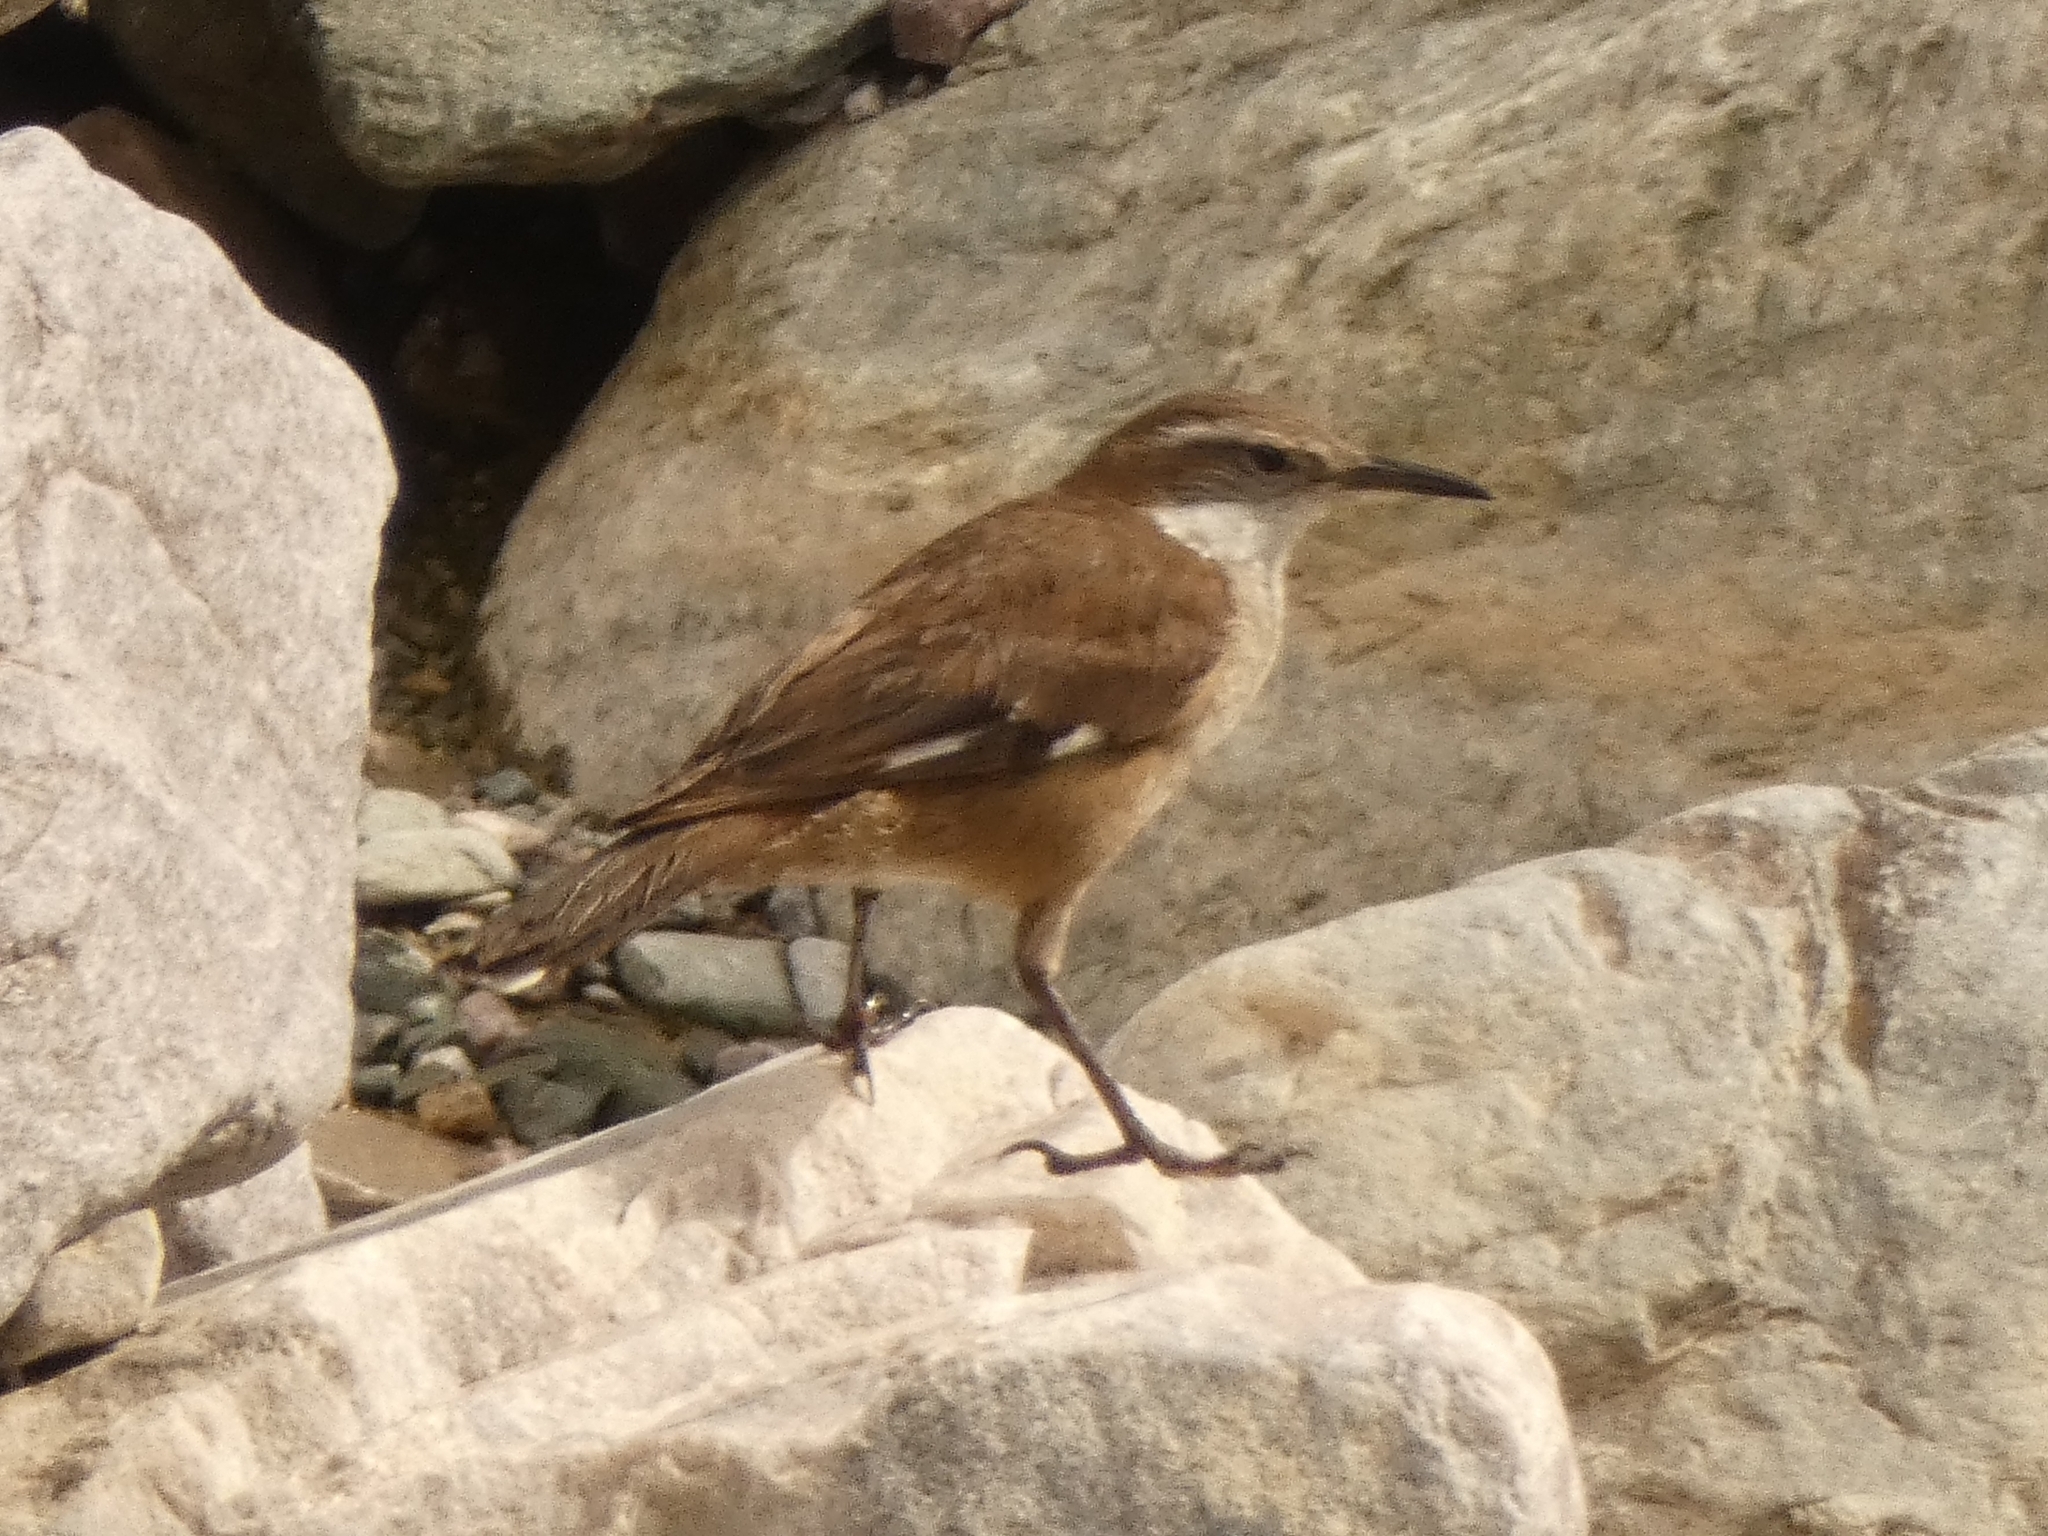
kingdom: Animalia
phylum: Chordata
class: Aves
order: Passeriformes
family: Furnariidae
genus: Cinclodes
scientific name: Cinclodes atacamensis
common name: White-winged cinclodes
